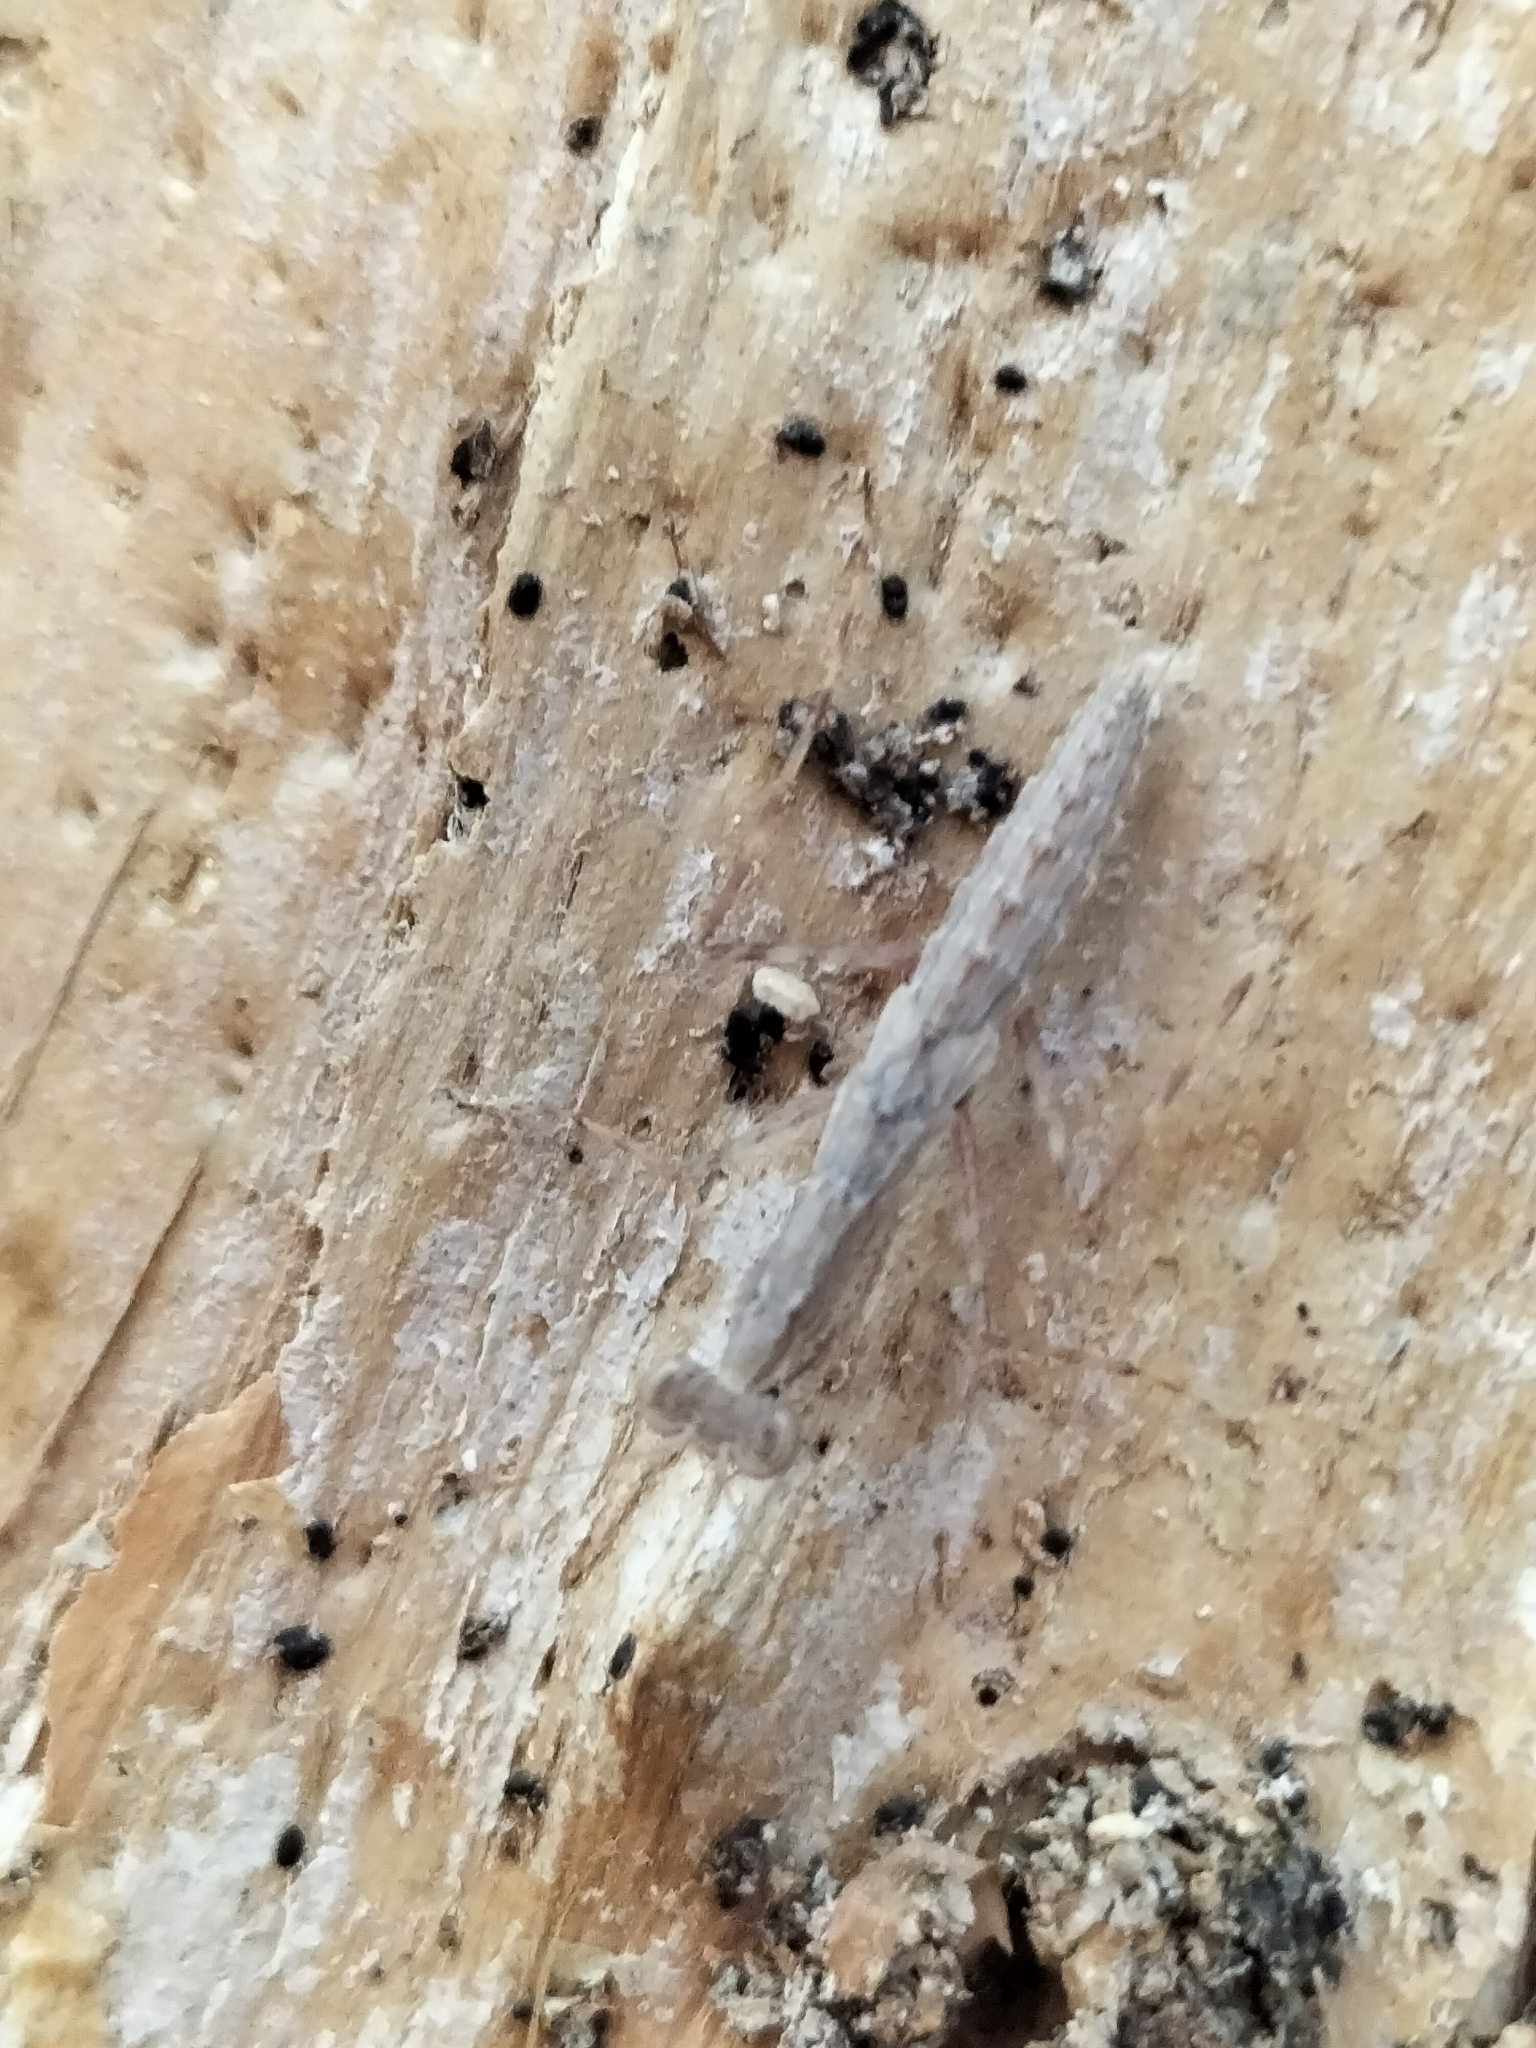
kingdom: Animalia
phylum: Arthropoda
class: Insecta
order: Mantodea
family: Nanomantidae
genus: Ima
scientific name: Ima fusca
